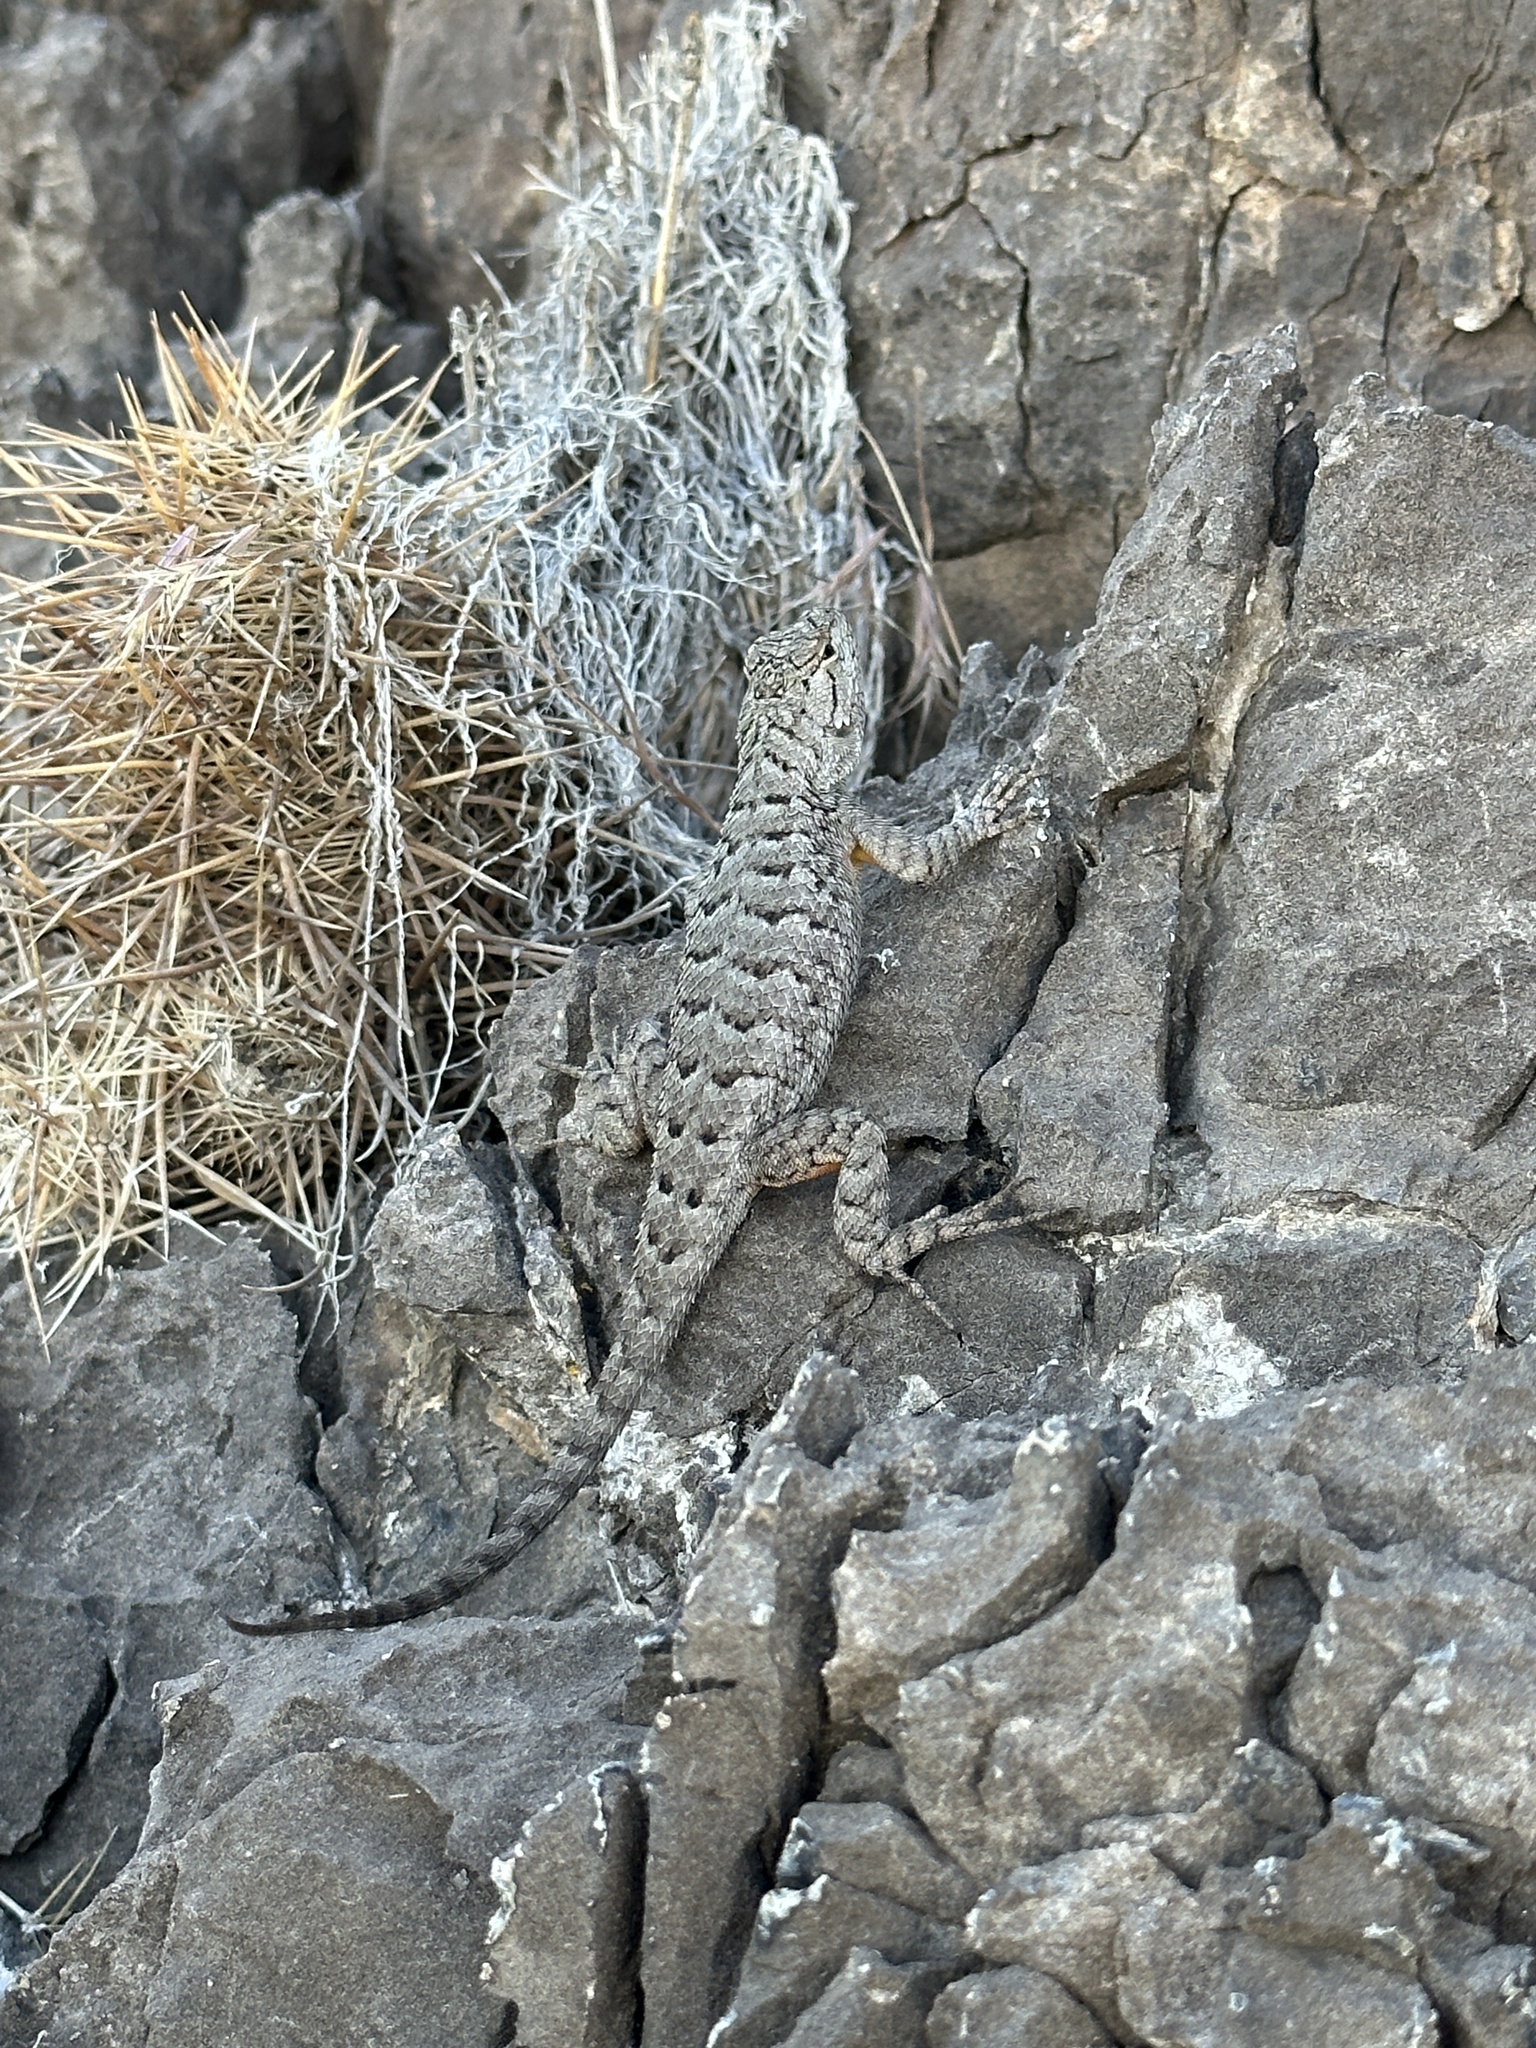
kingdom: Animalia
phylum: Chordata
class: Squamata
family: Phrynosomatidae
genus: Sceloporus
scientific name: Sceloporus occidentalis
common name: Western fence lizard
